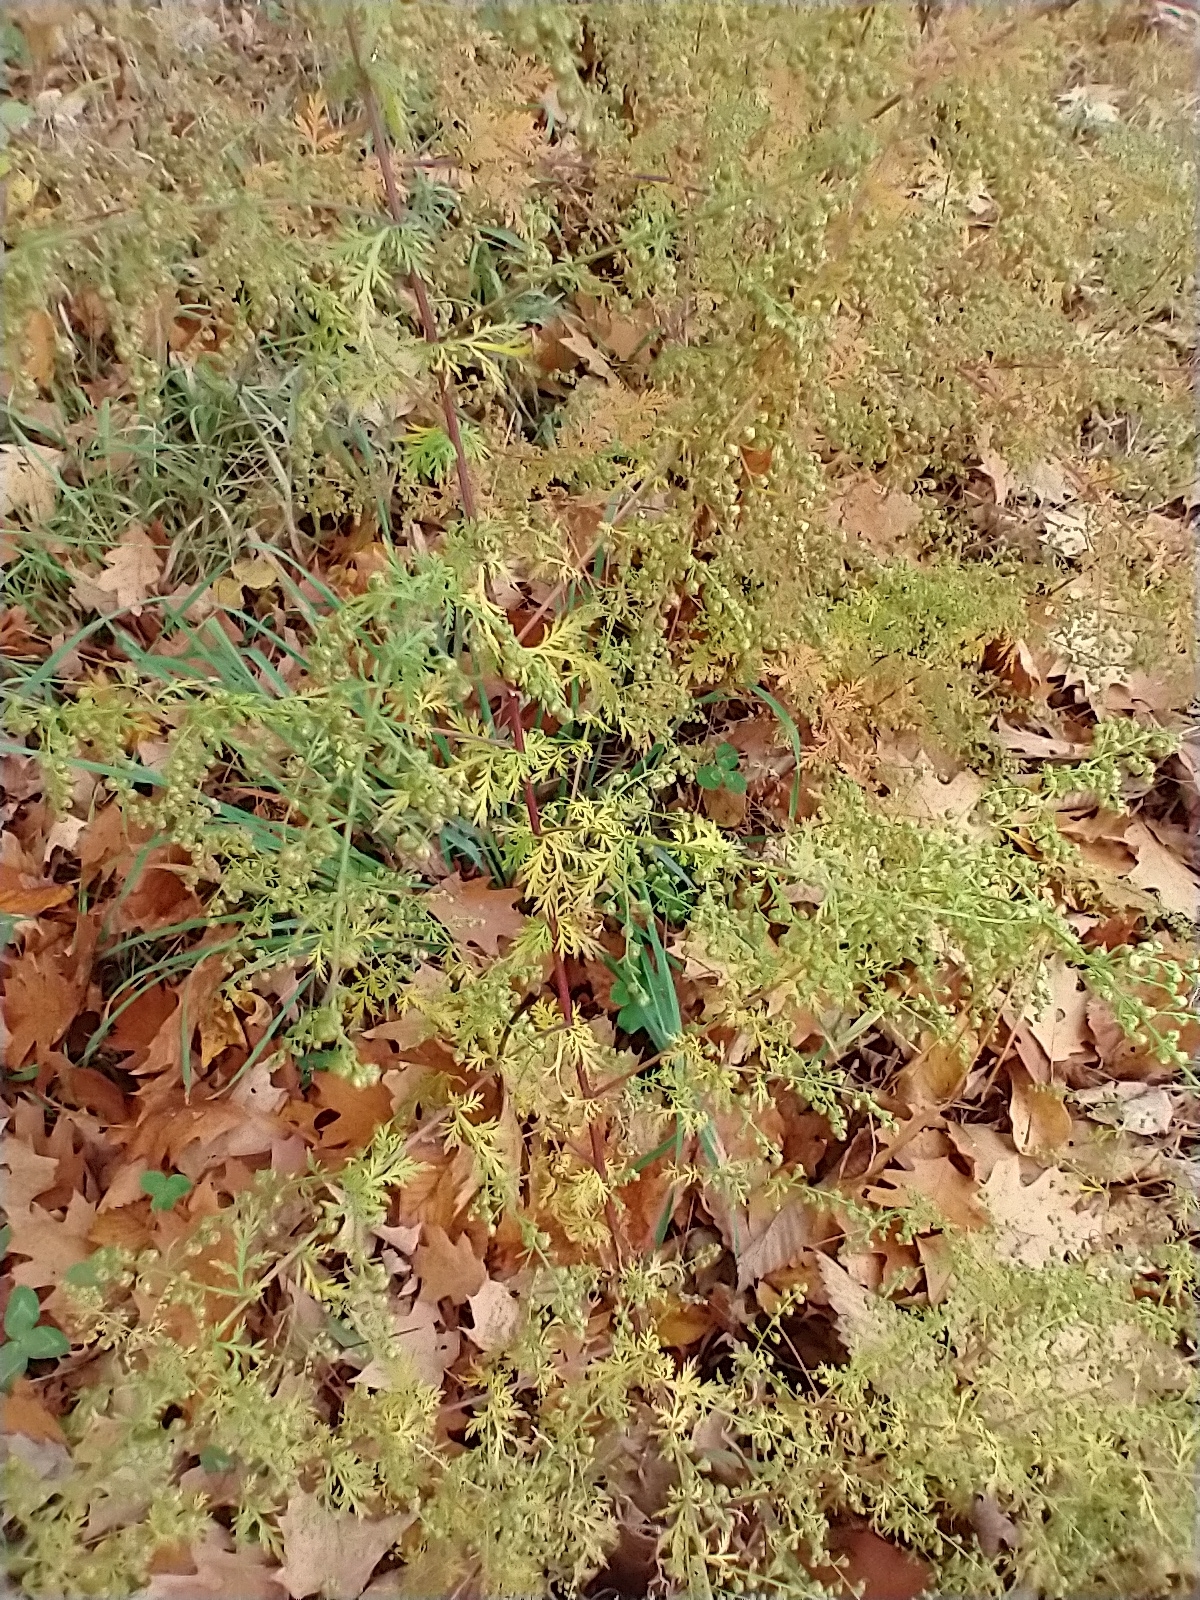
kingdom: Plantae
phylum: Tracheophyta
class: Magnoliopsida
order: Asterales
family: Asteraceae
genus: Artemisia
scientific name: Artemisia annua
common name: Sweet sagewort
